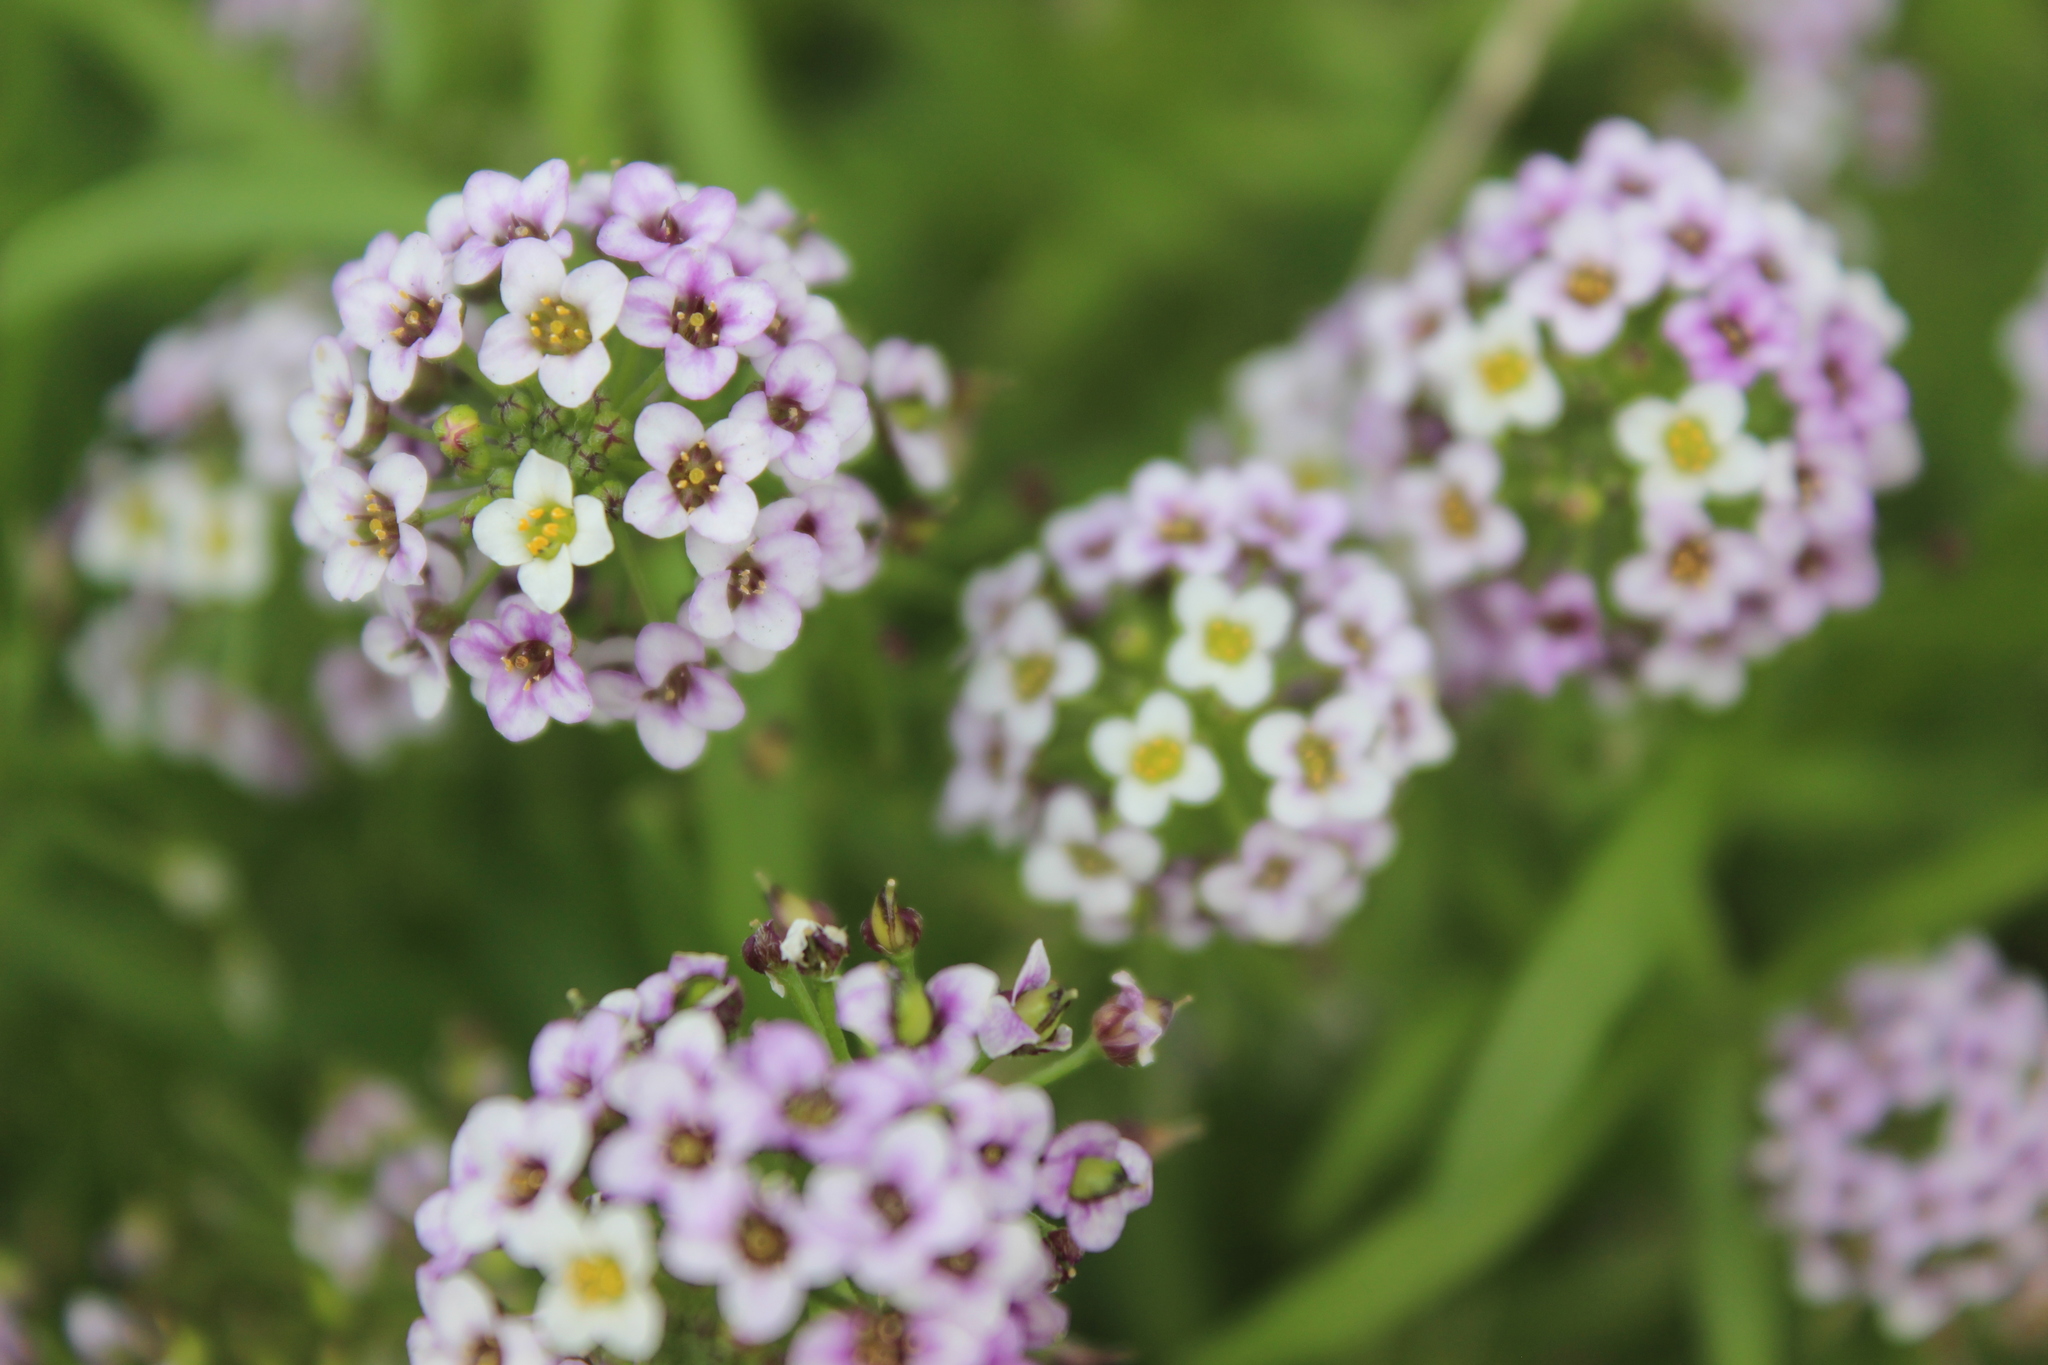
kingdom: Plantae
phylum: Tracheophyta
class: Magnoliopsida
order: Brassicales
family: Brassicaceae
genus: Lobularia
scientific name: Lobularia maritima
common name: Sweet alison
